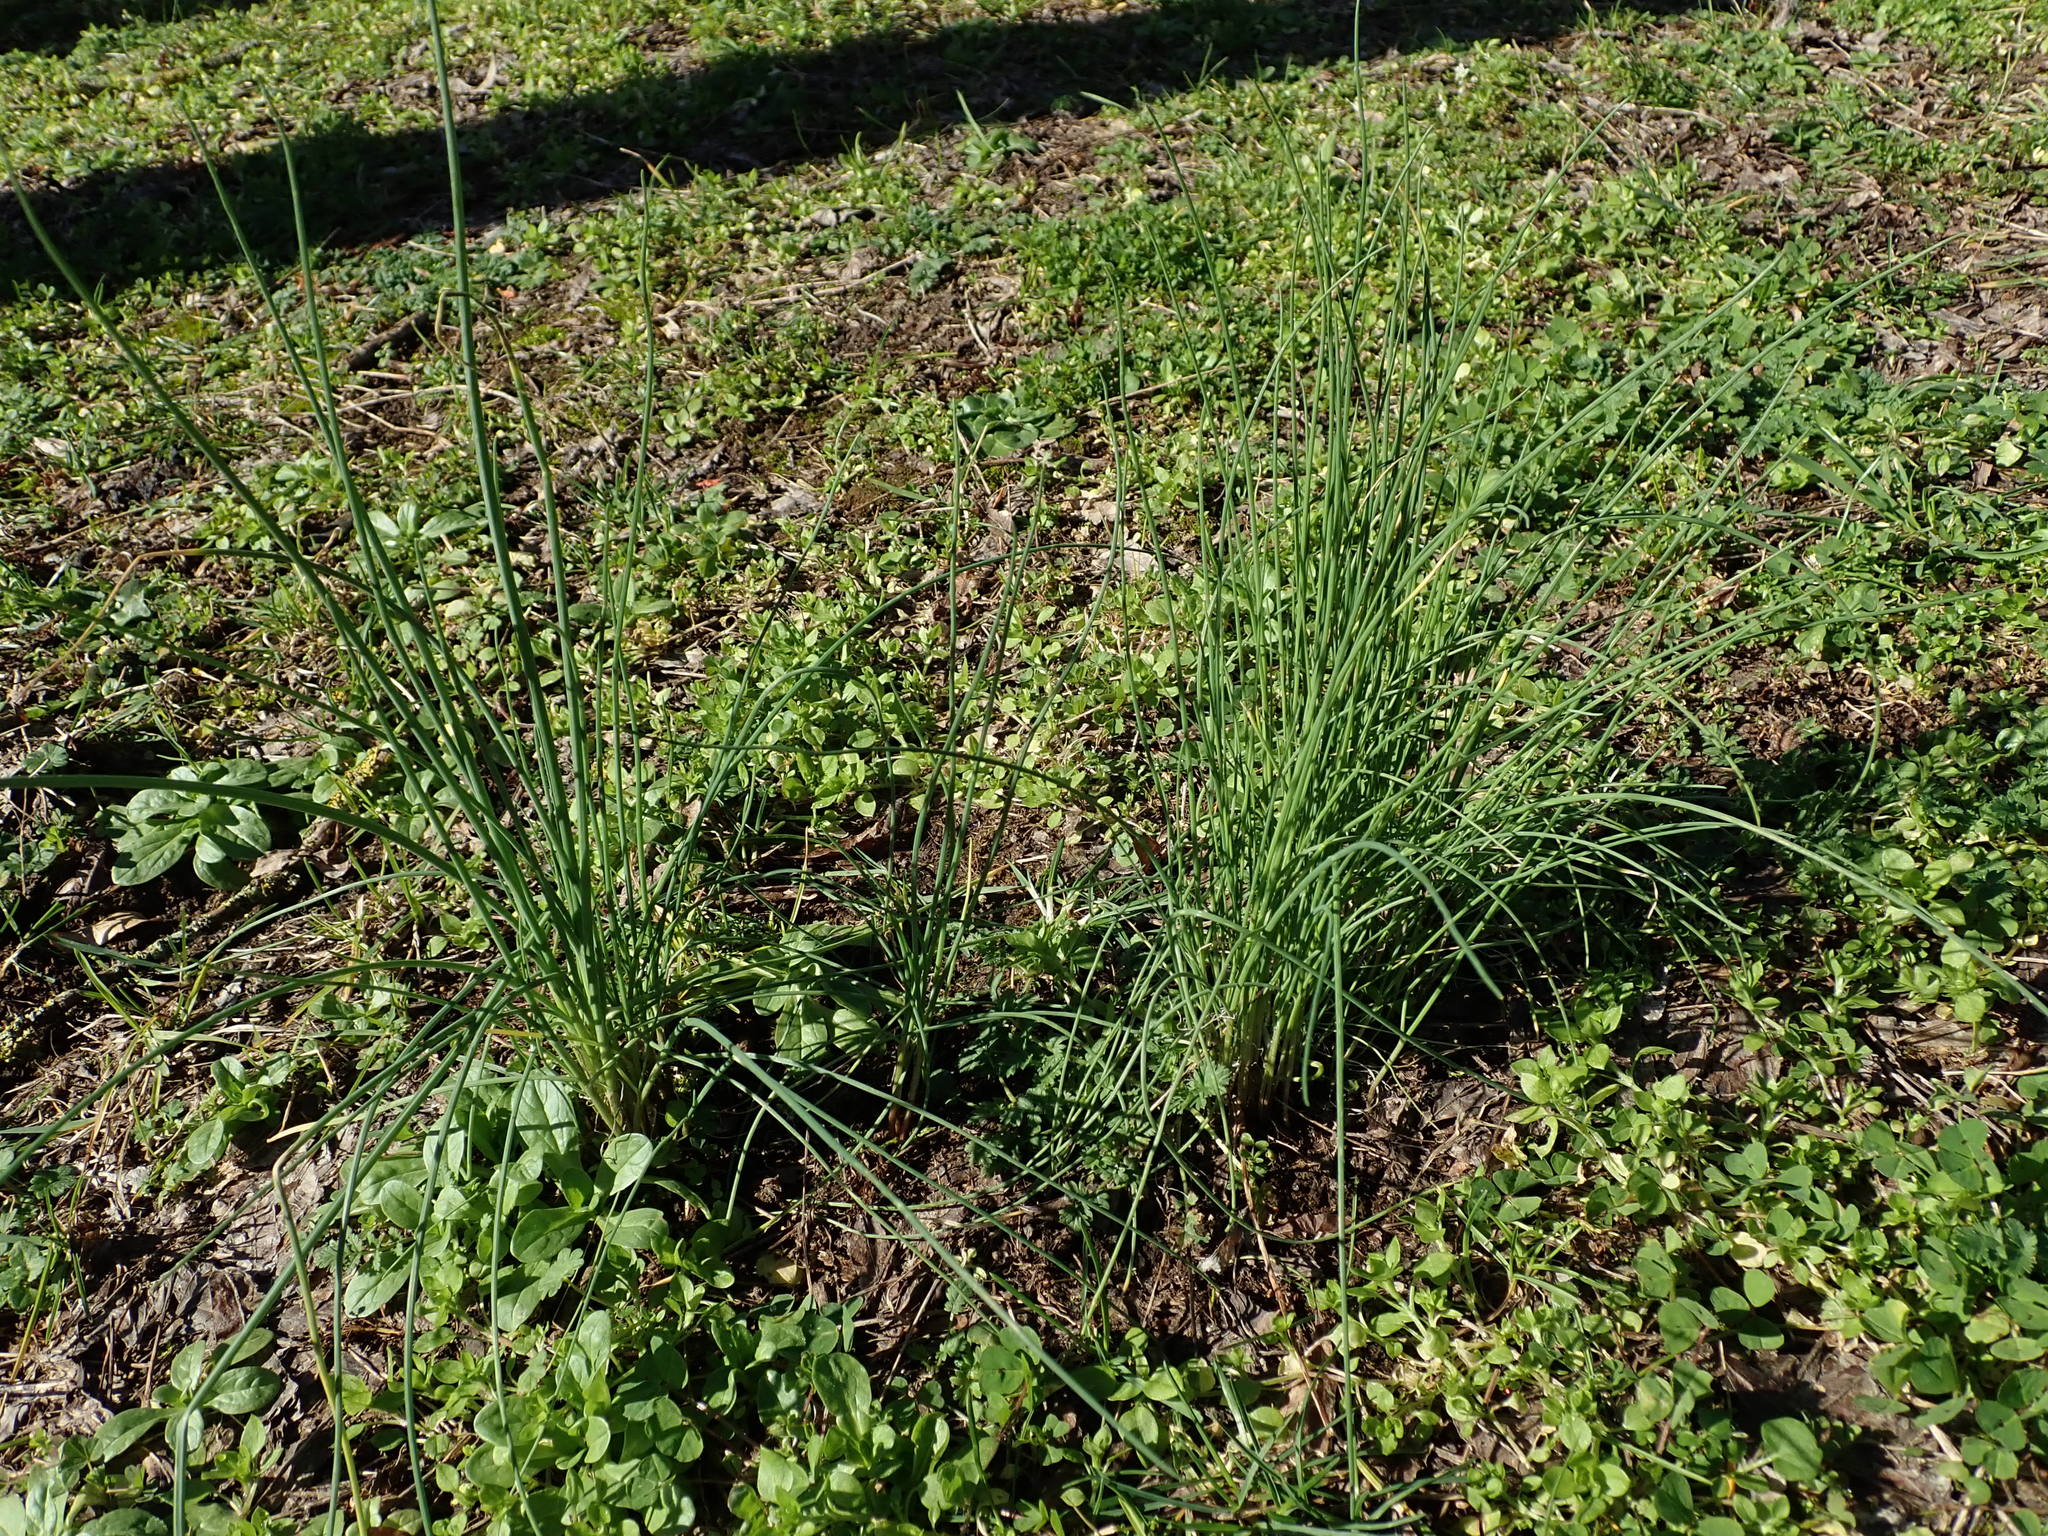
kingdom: Plantae
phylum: Tracheophyta
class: Liliopsida
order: Asparagales
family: Amaryllidaceae
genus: Allium
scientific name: Allium vineale
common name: Crow garlic
